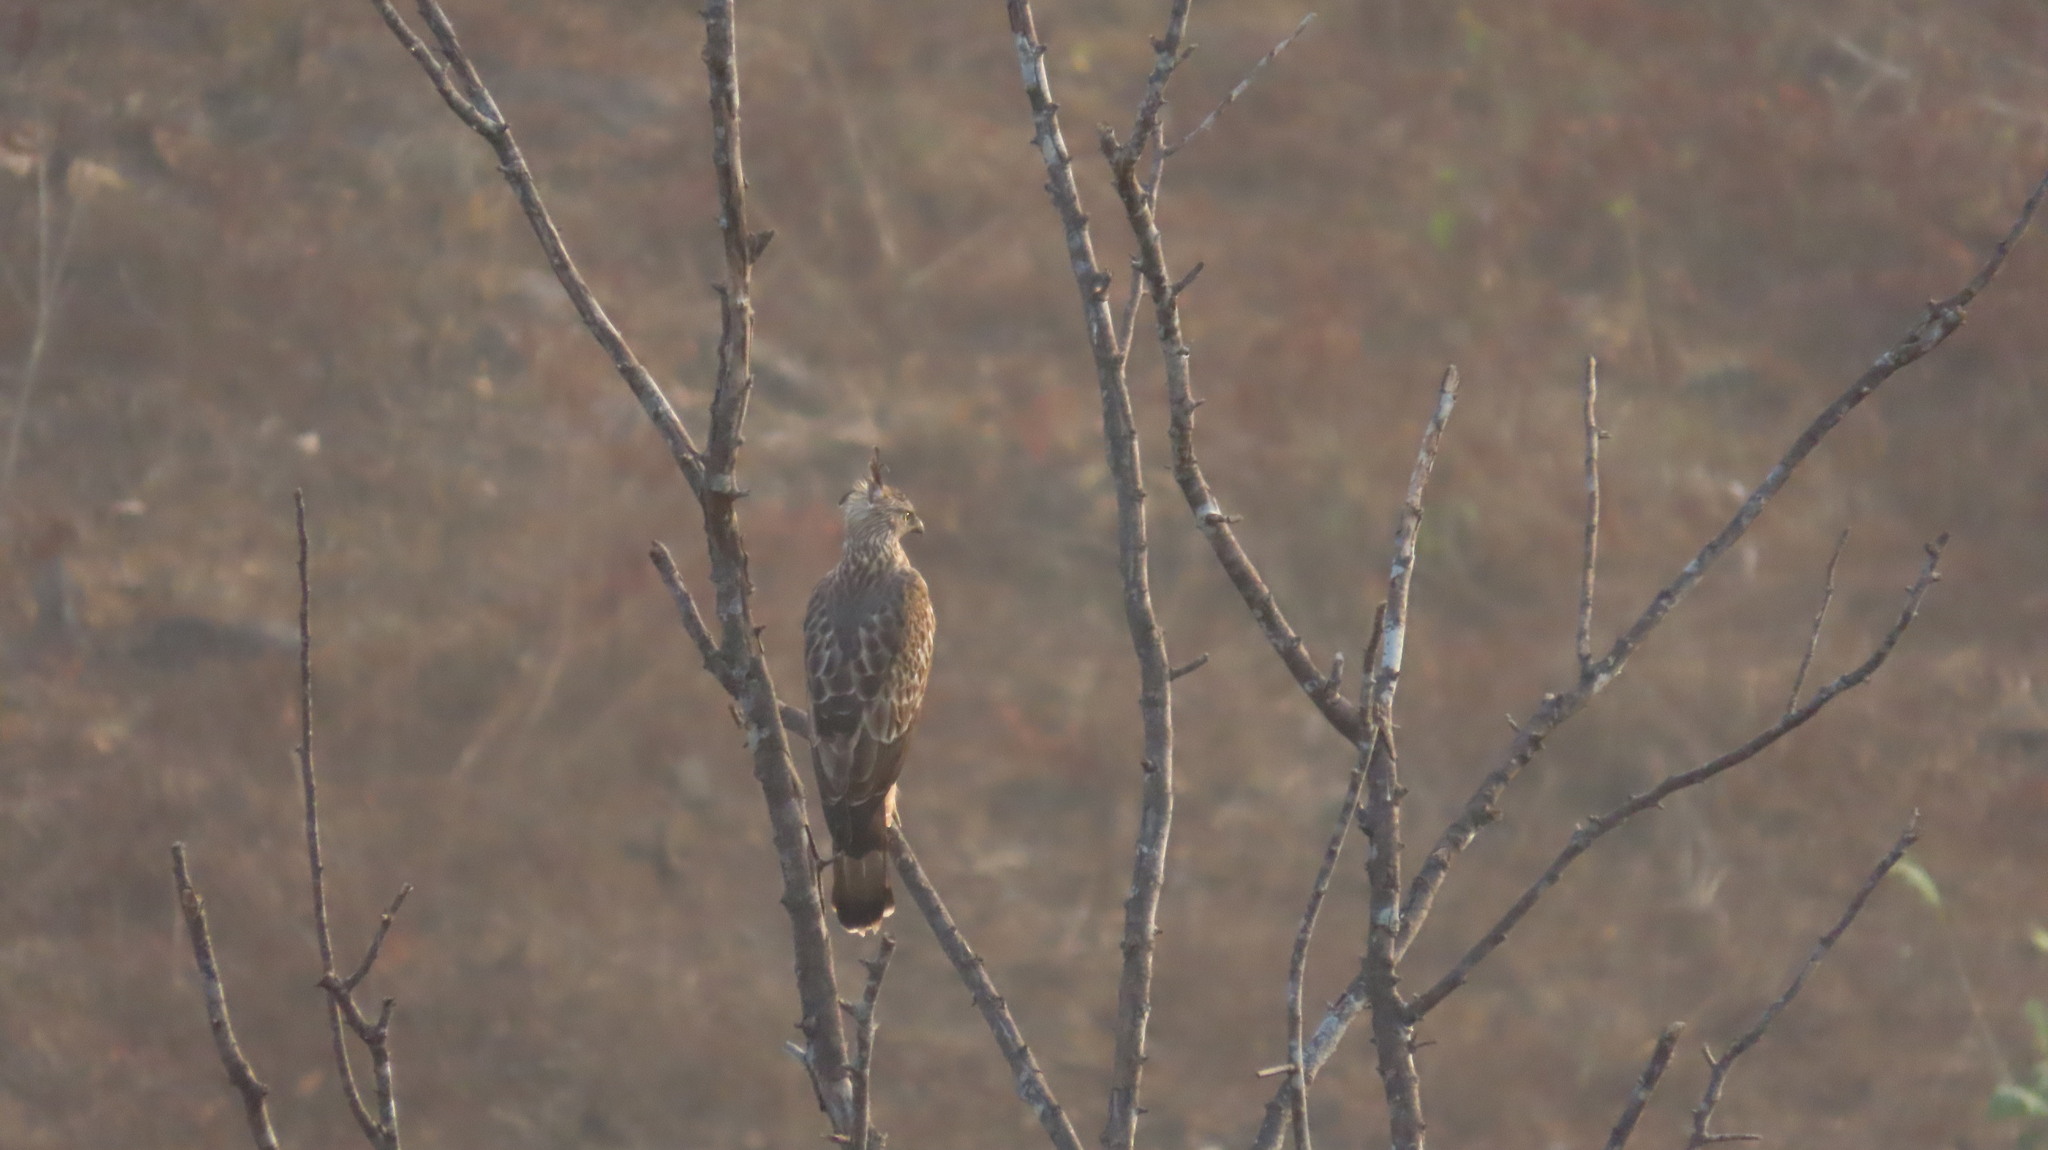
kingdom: Animalia
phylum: Chordata
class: Aves
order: Accipitriformes
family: Accipitridae
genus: Nisaetus
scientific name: Nisaetus cirrhatus
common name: Changeable hawk-eagle
